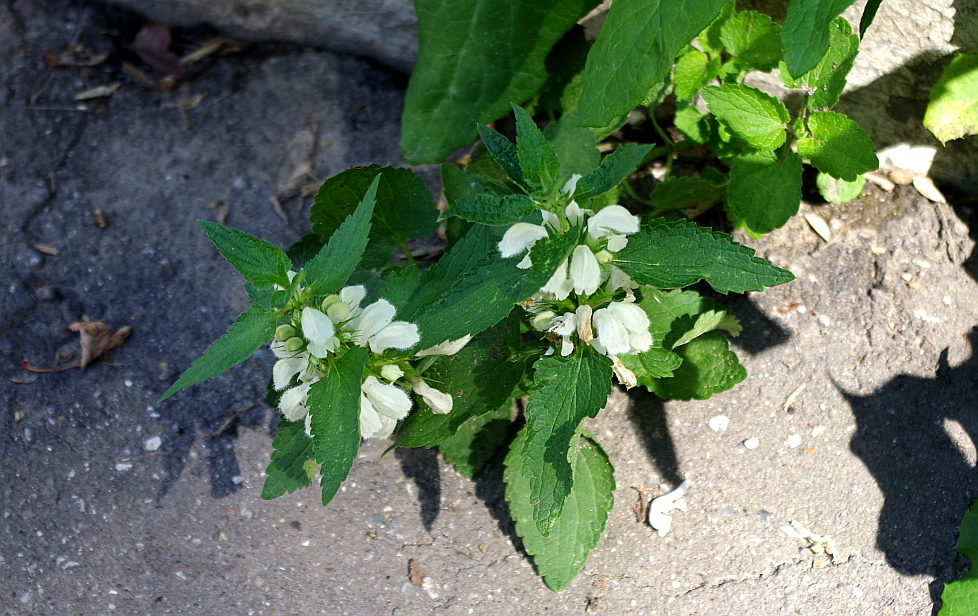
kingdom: Plantae
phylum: Tracheophyta
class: Magnoliopsida
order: Lamiales
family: Lamiaceae
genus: Lamium
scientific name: Lamium album
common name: White dead-nettle
